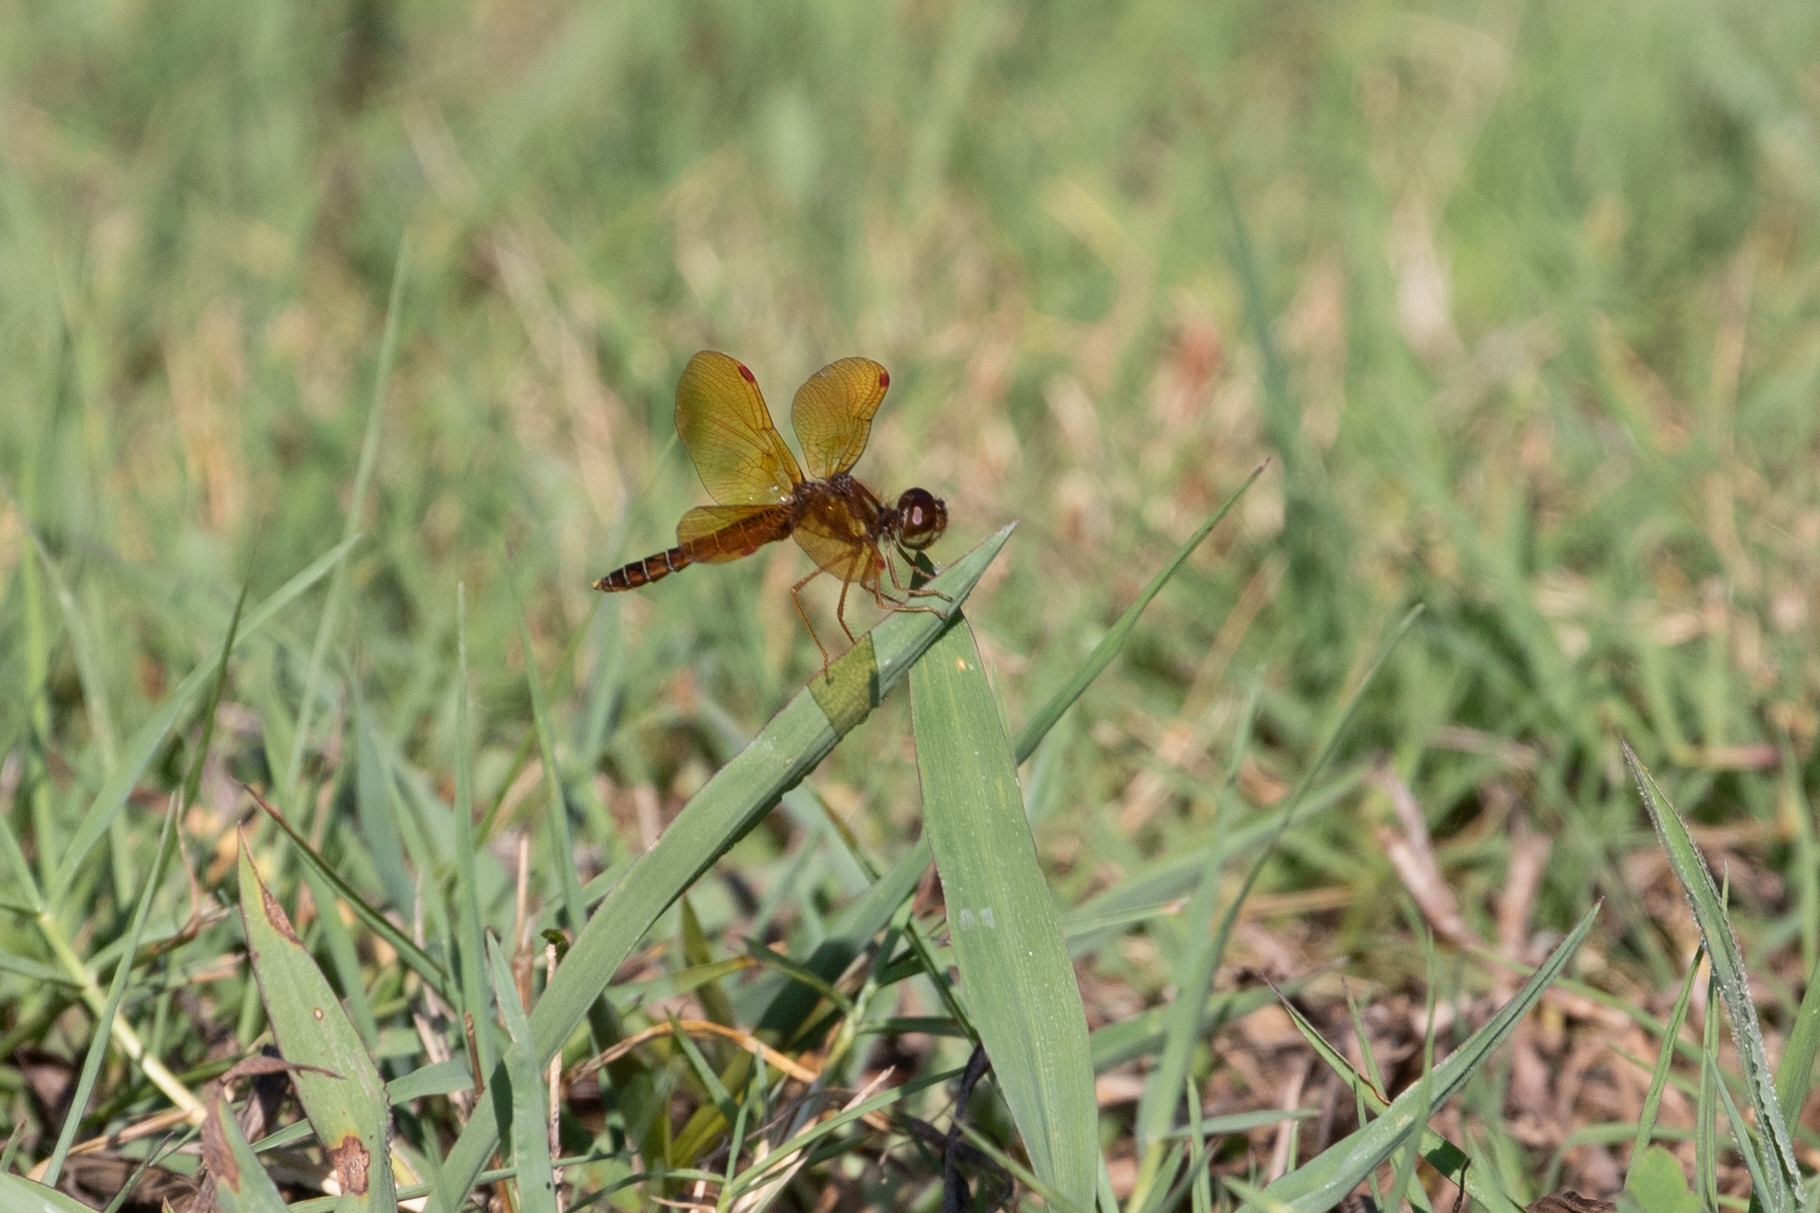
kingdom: Animalia
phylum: Arthropoda
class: Insecta
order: Odonata
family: Libellulidae
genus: Perithemis
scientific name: Perithemis tenera
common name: Eastern amberwing
